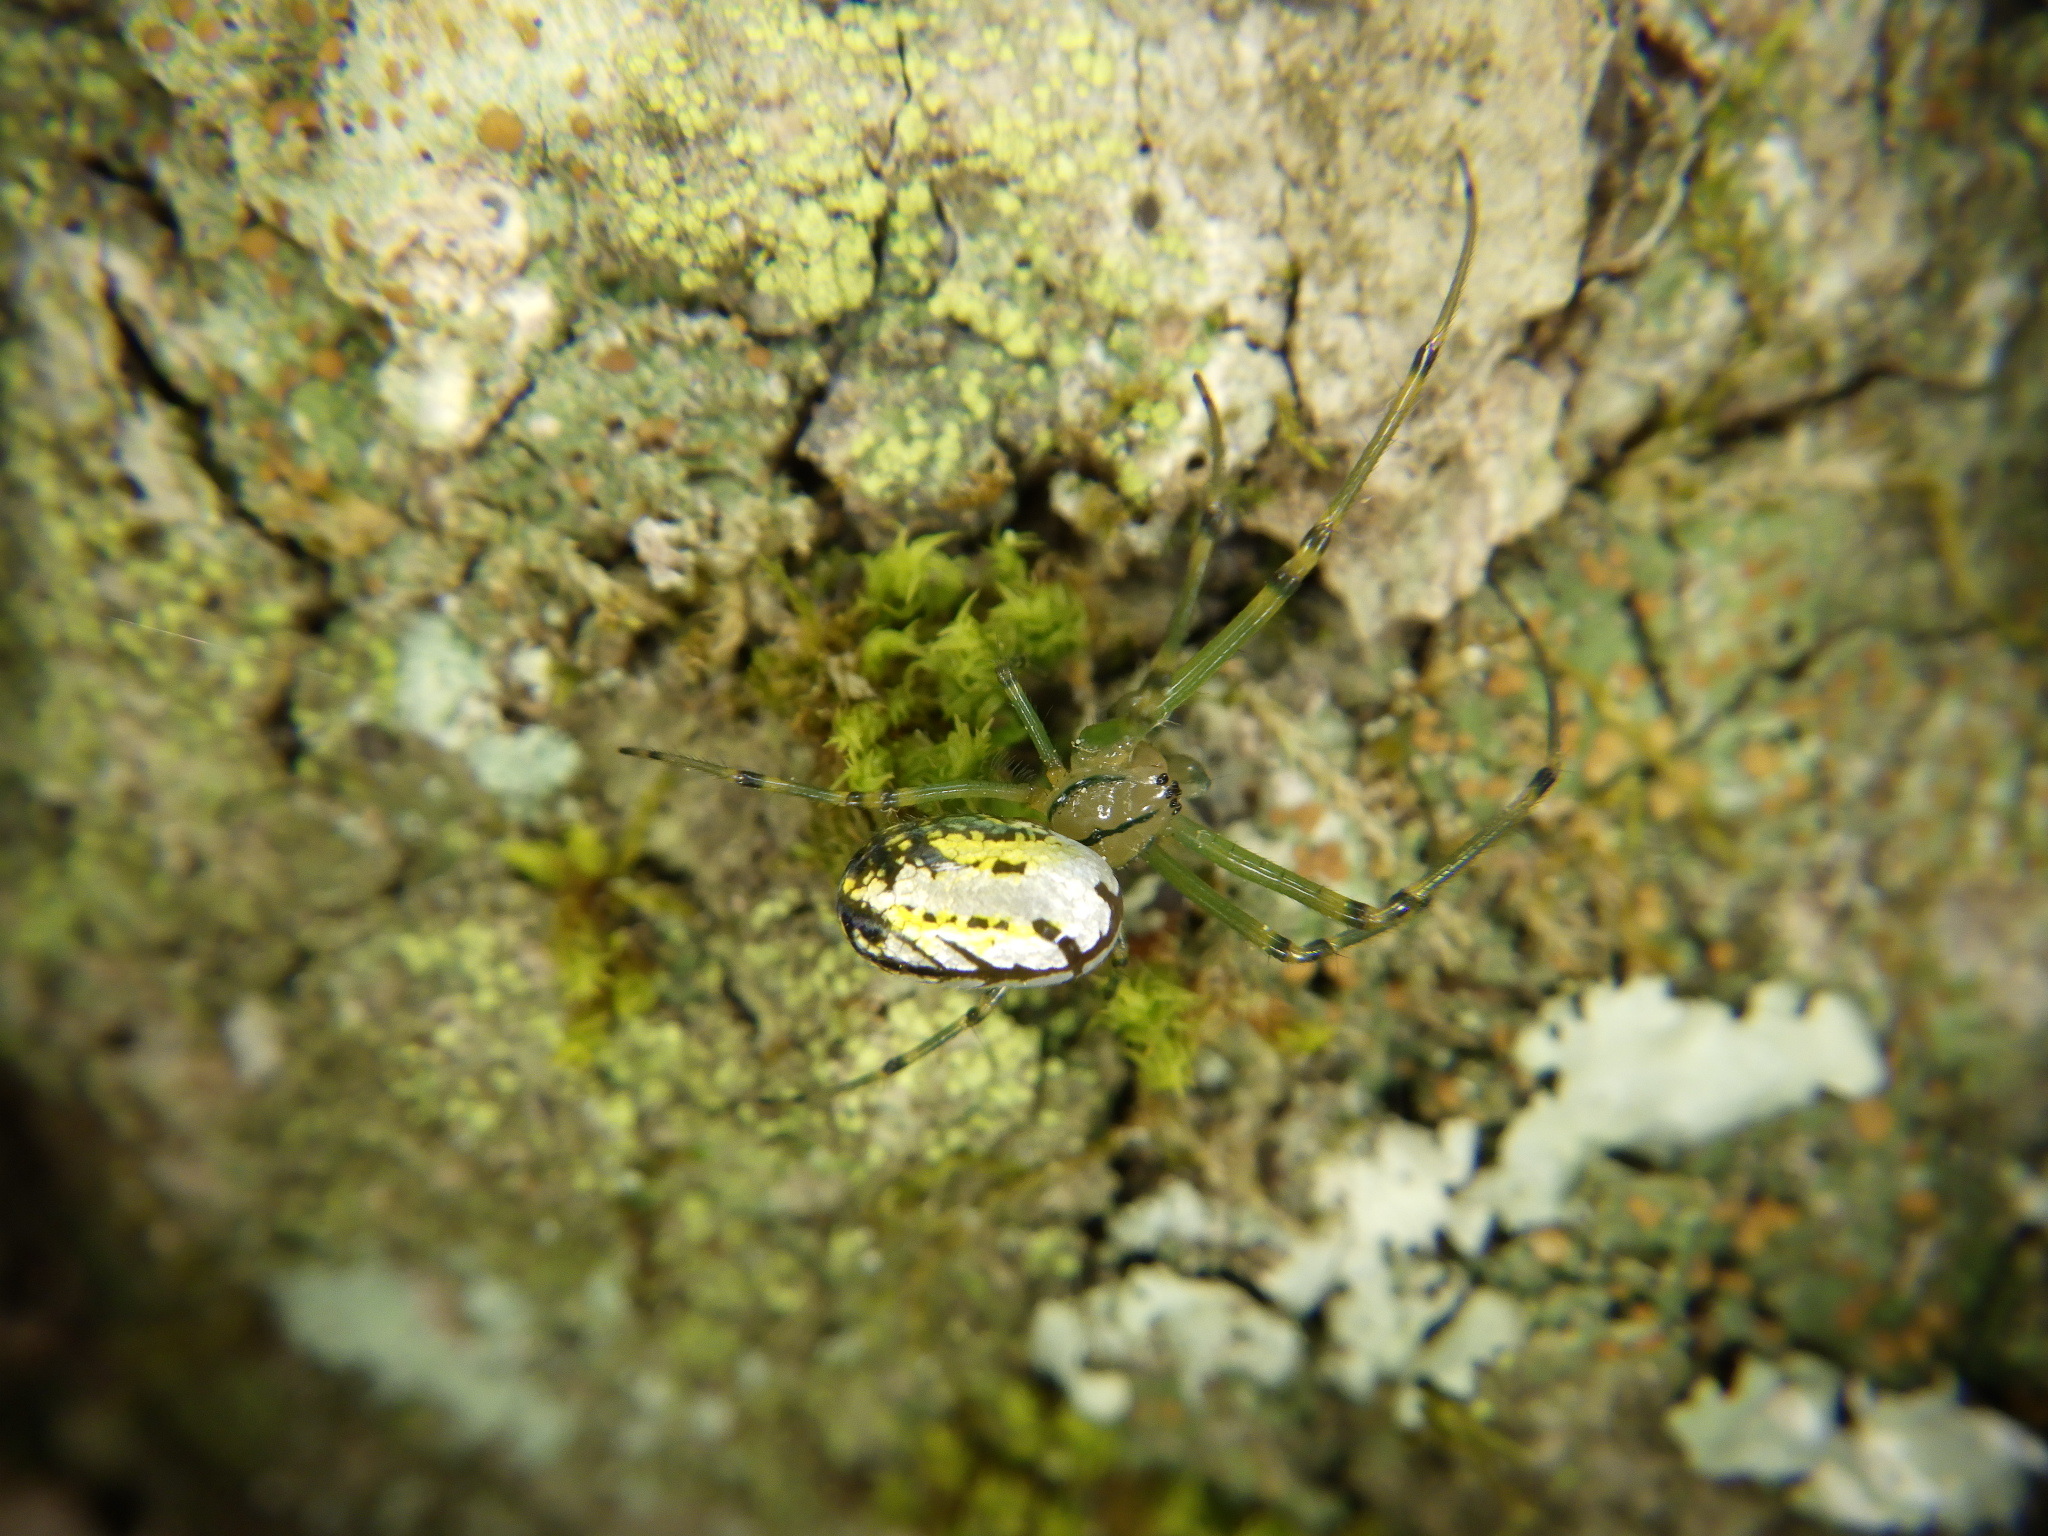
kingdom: Animalia
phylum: Arthropoda
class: Arachnida
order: Araneae
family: Tetragnathidae
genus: Leucauge
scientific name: Leucauge venusta
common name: Longjawed orb weavers
